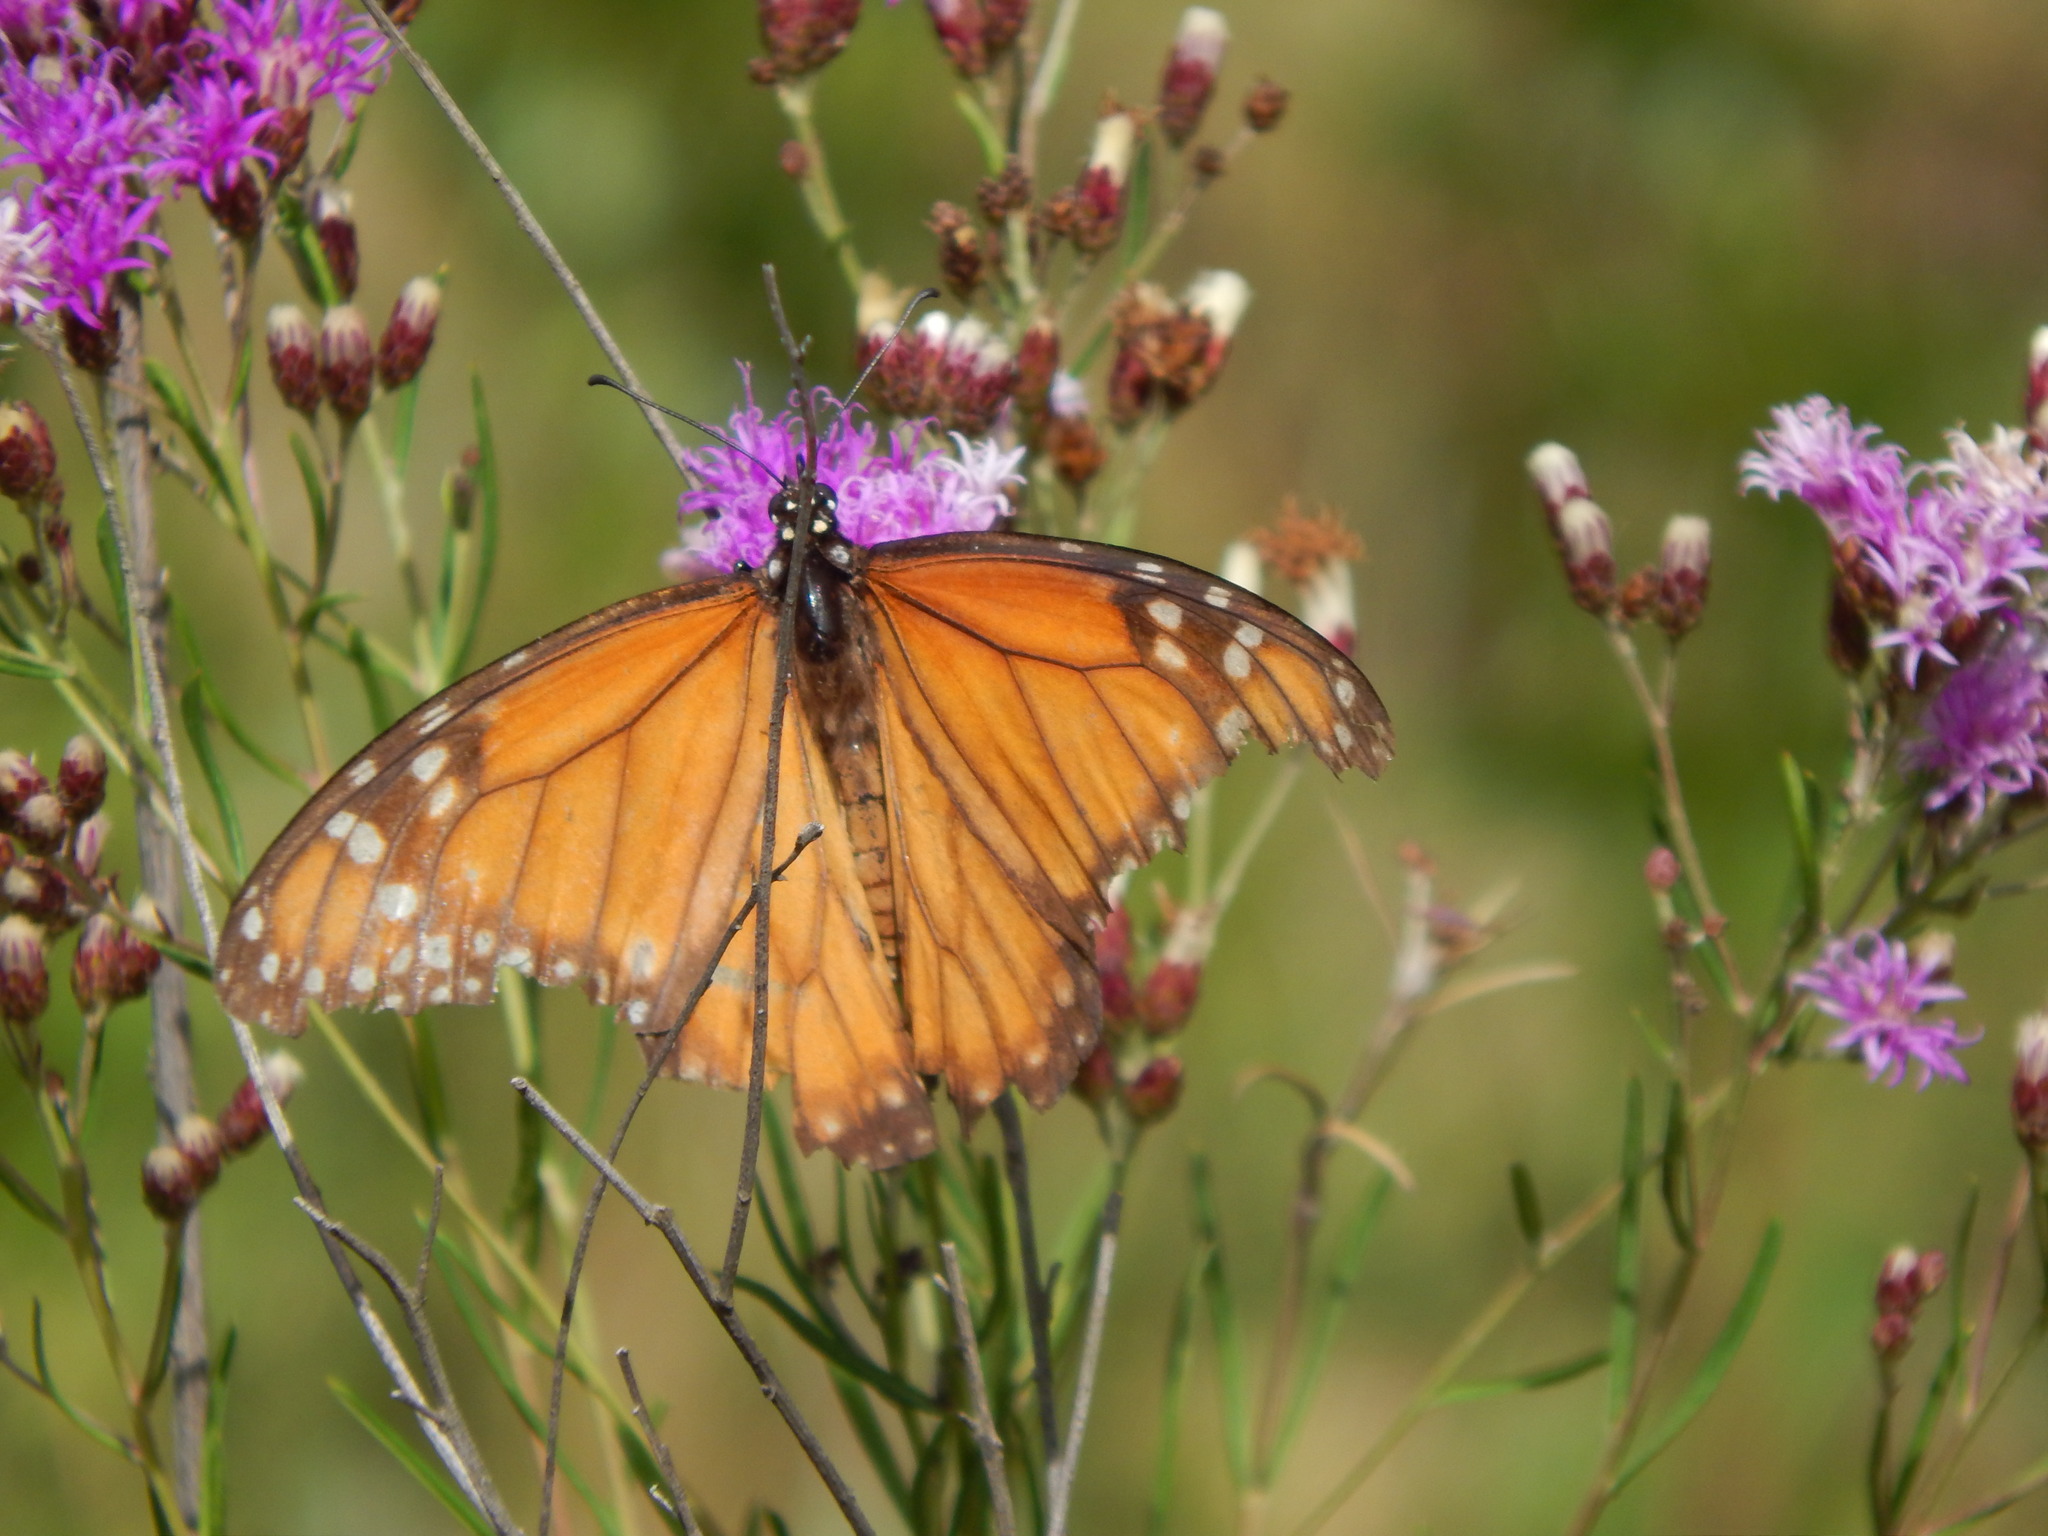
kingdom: Animalia
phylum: Arthropoda
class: Insecta
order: Lepidoptera
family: Nymphalidae
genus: Danaus
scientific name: Danaus erippus
